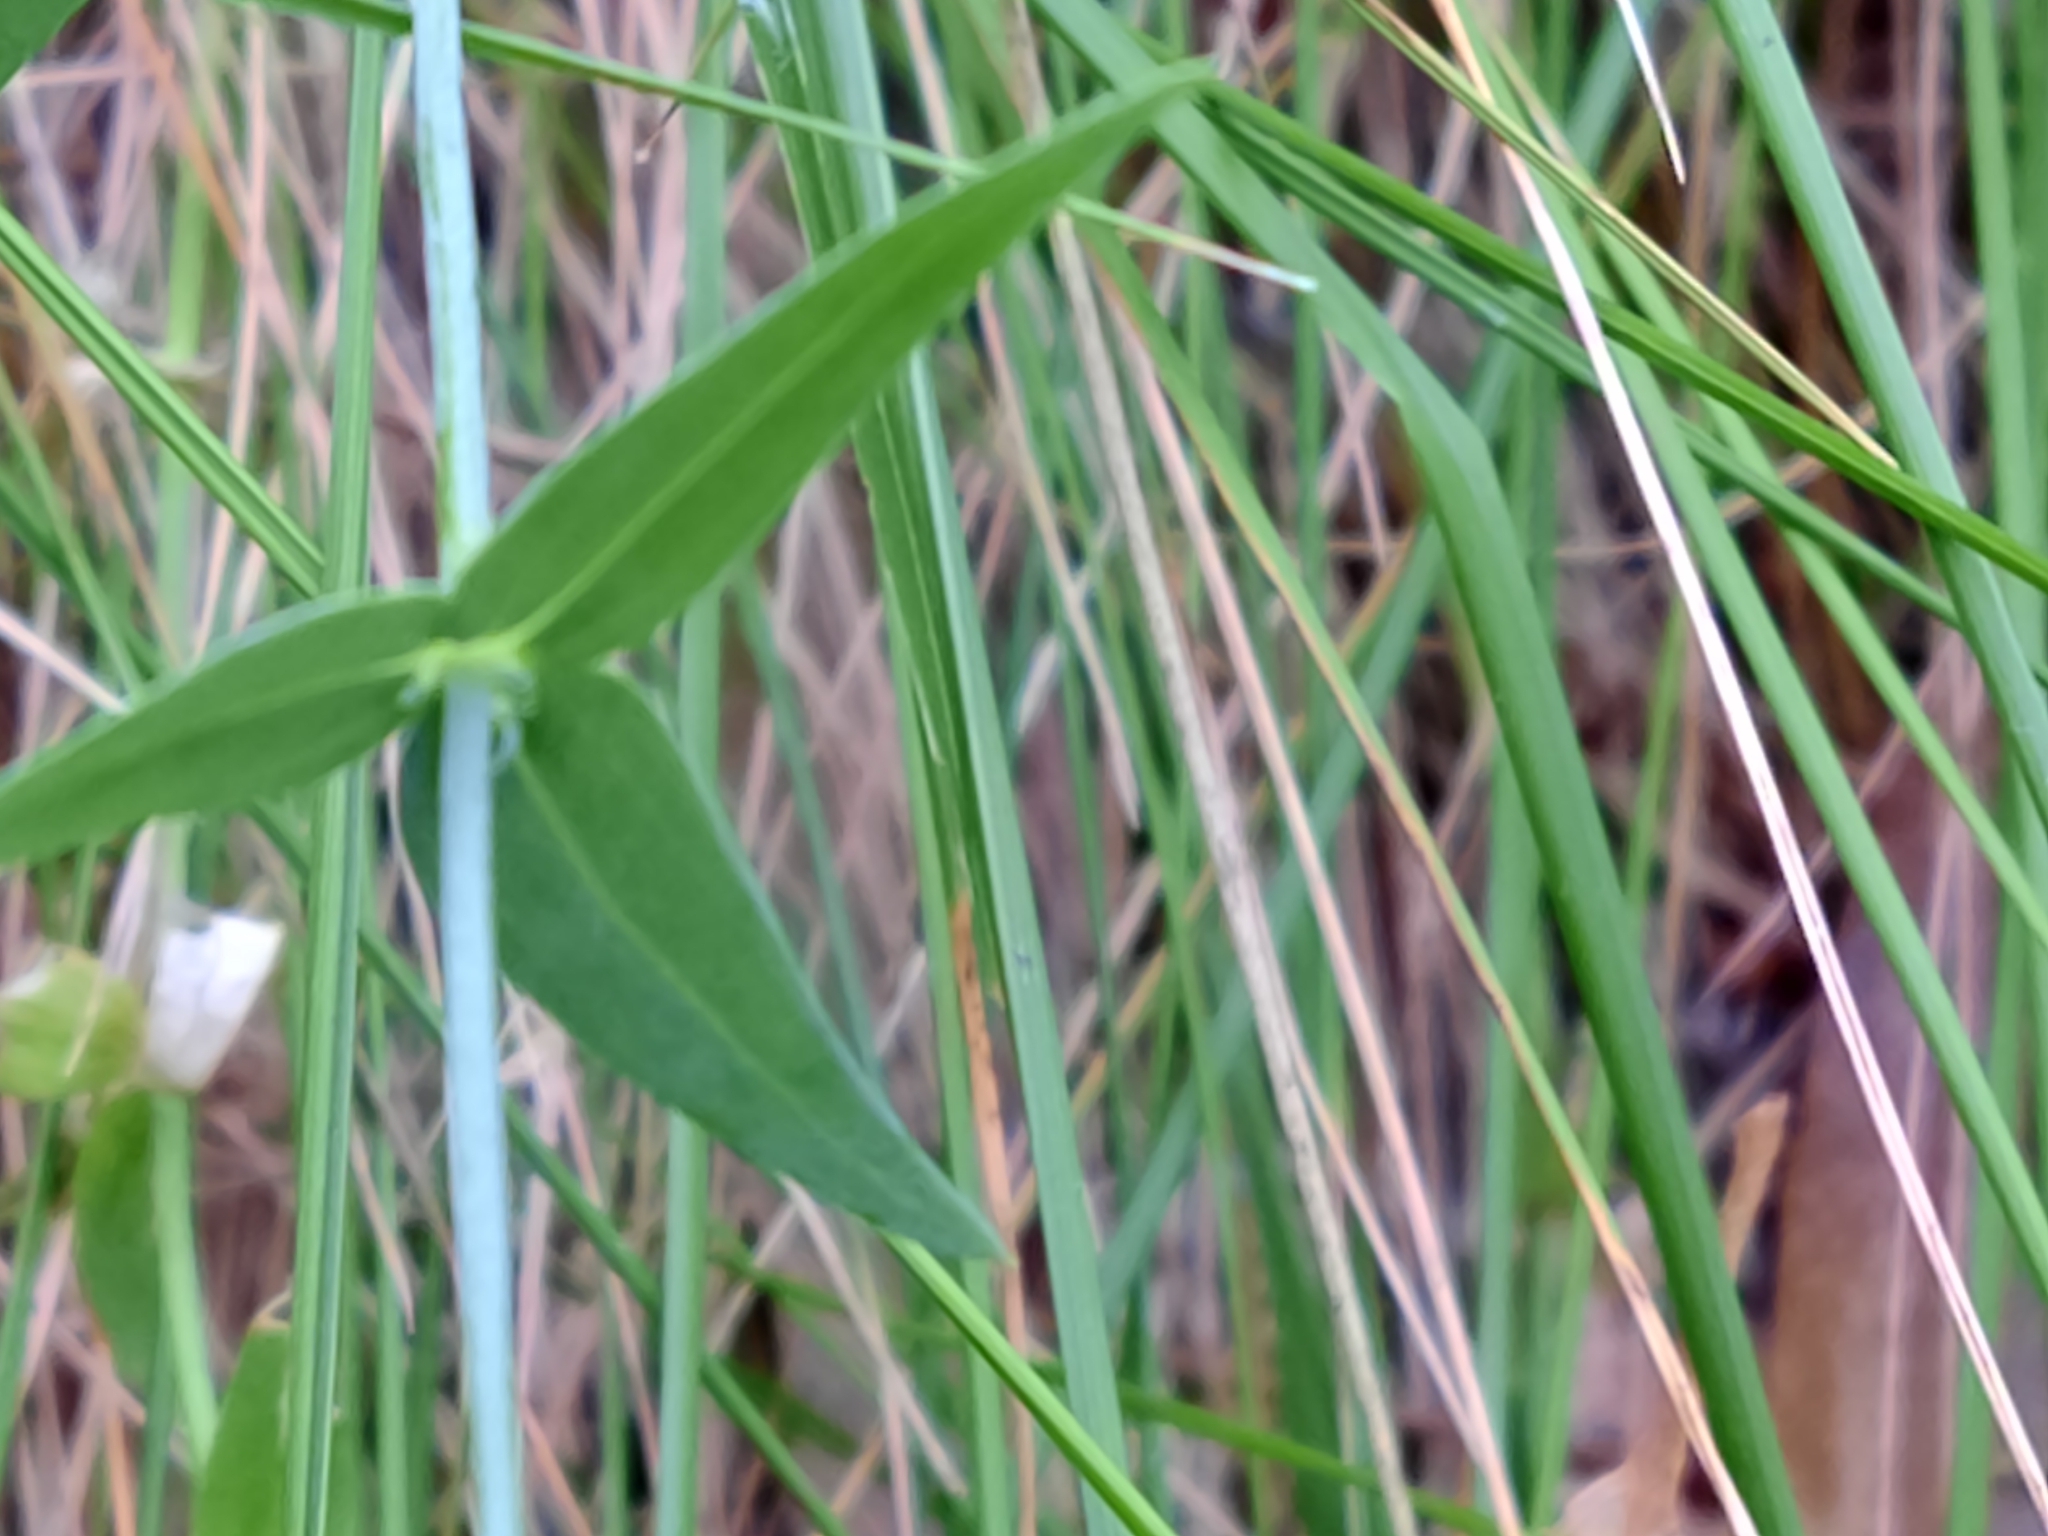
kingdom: Plantae
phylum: Tracheophyta
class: Magnoliopsida
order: Lamiales
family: Plantaginaceae
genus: Linaria
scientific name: Linaria triornithophora
